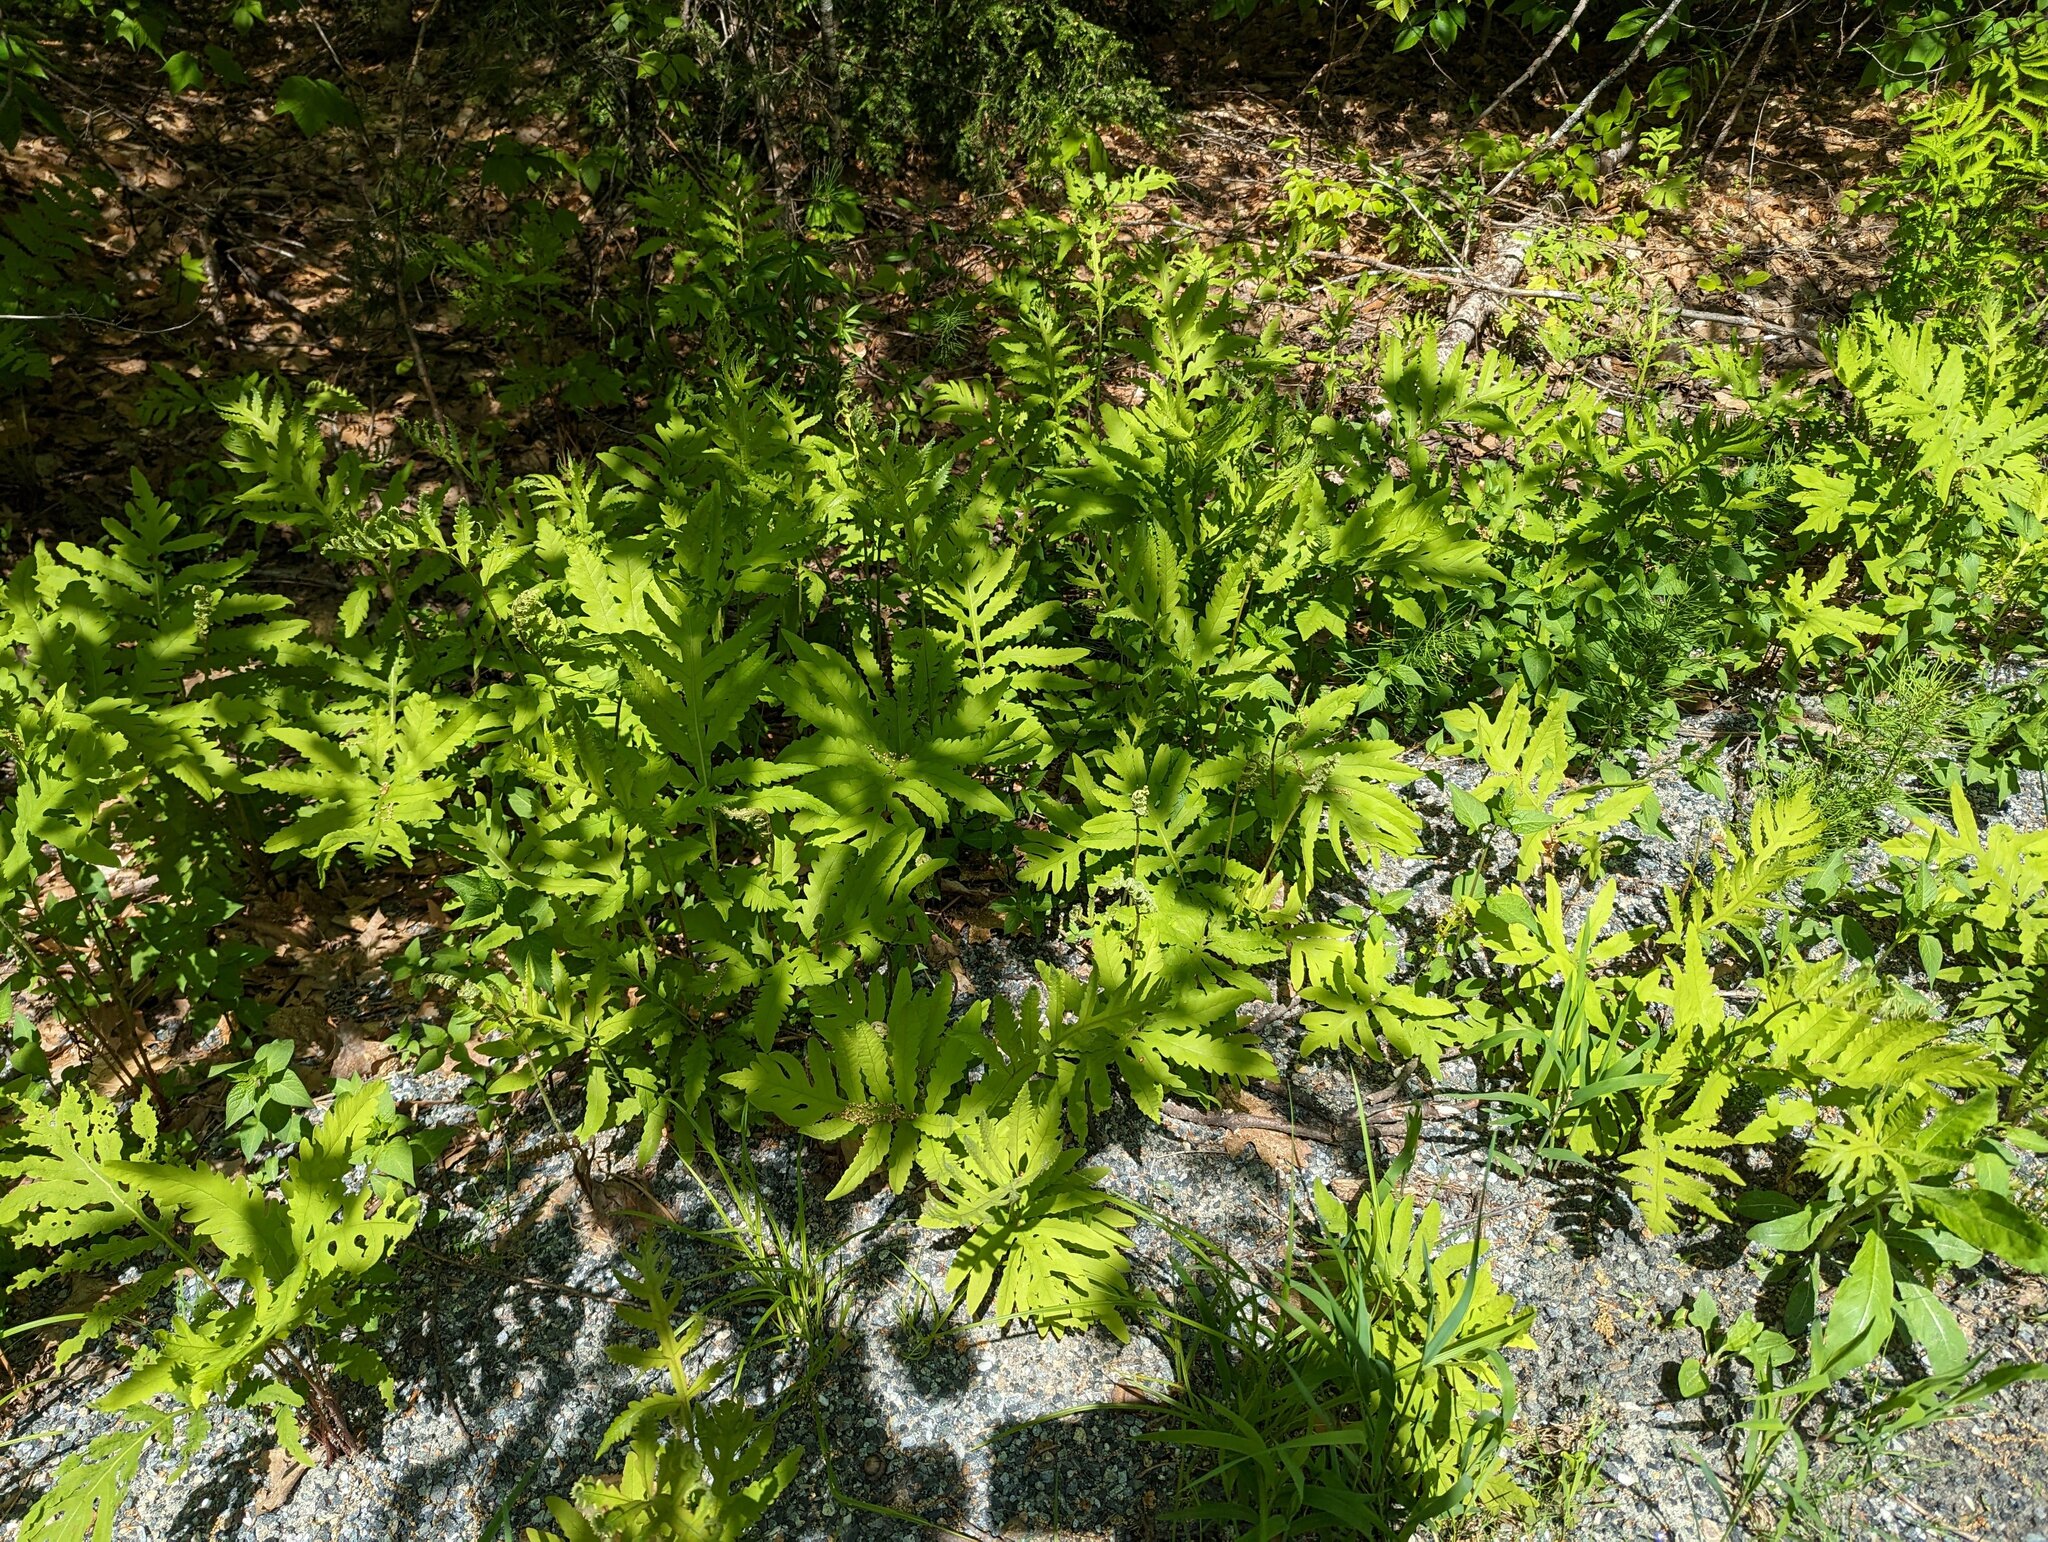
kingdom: Plantae
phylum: Tracheophyta
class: Polypodiopsida
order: Polypodiales
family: Onocleaceae
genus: Onoclea
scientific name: Onoclea sensibilis
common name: Sensitive fern
